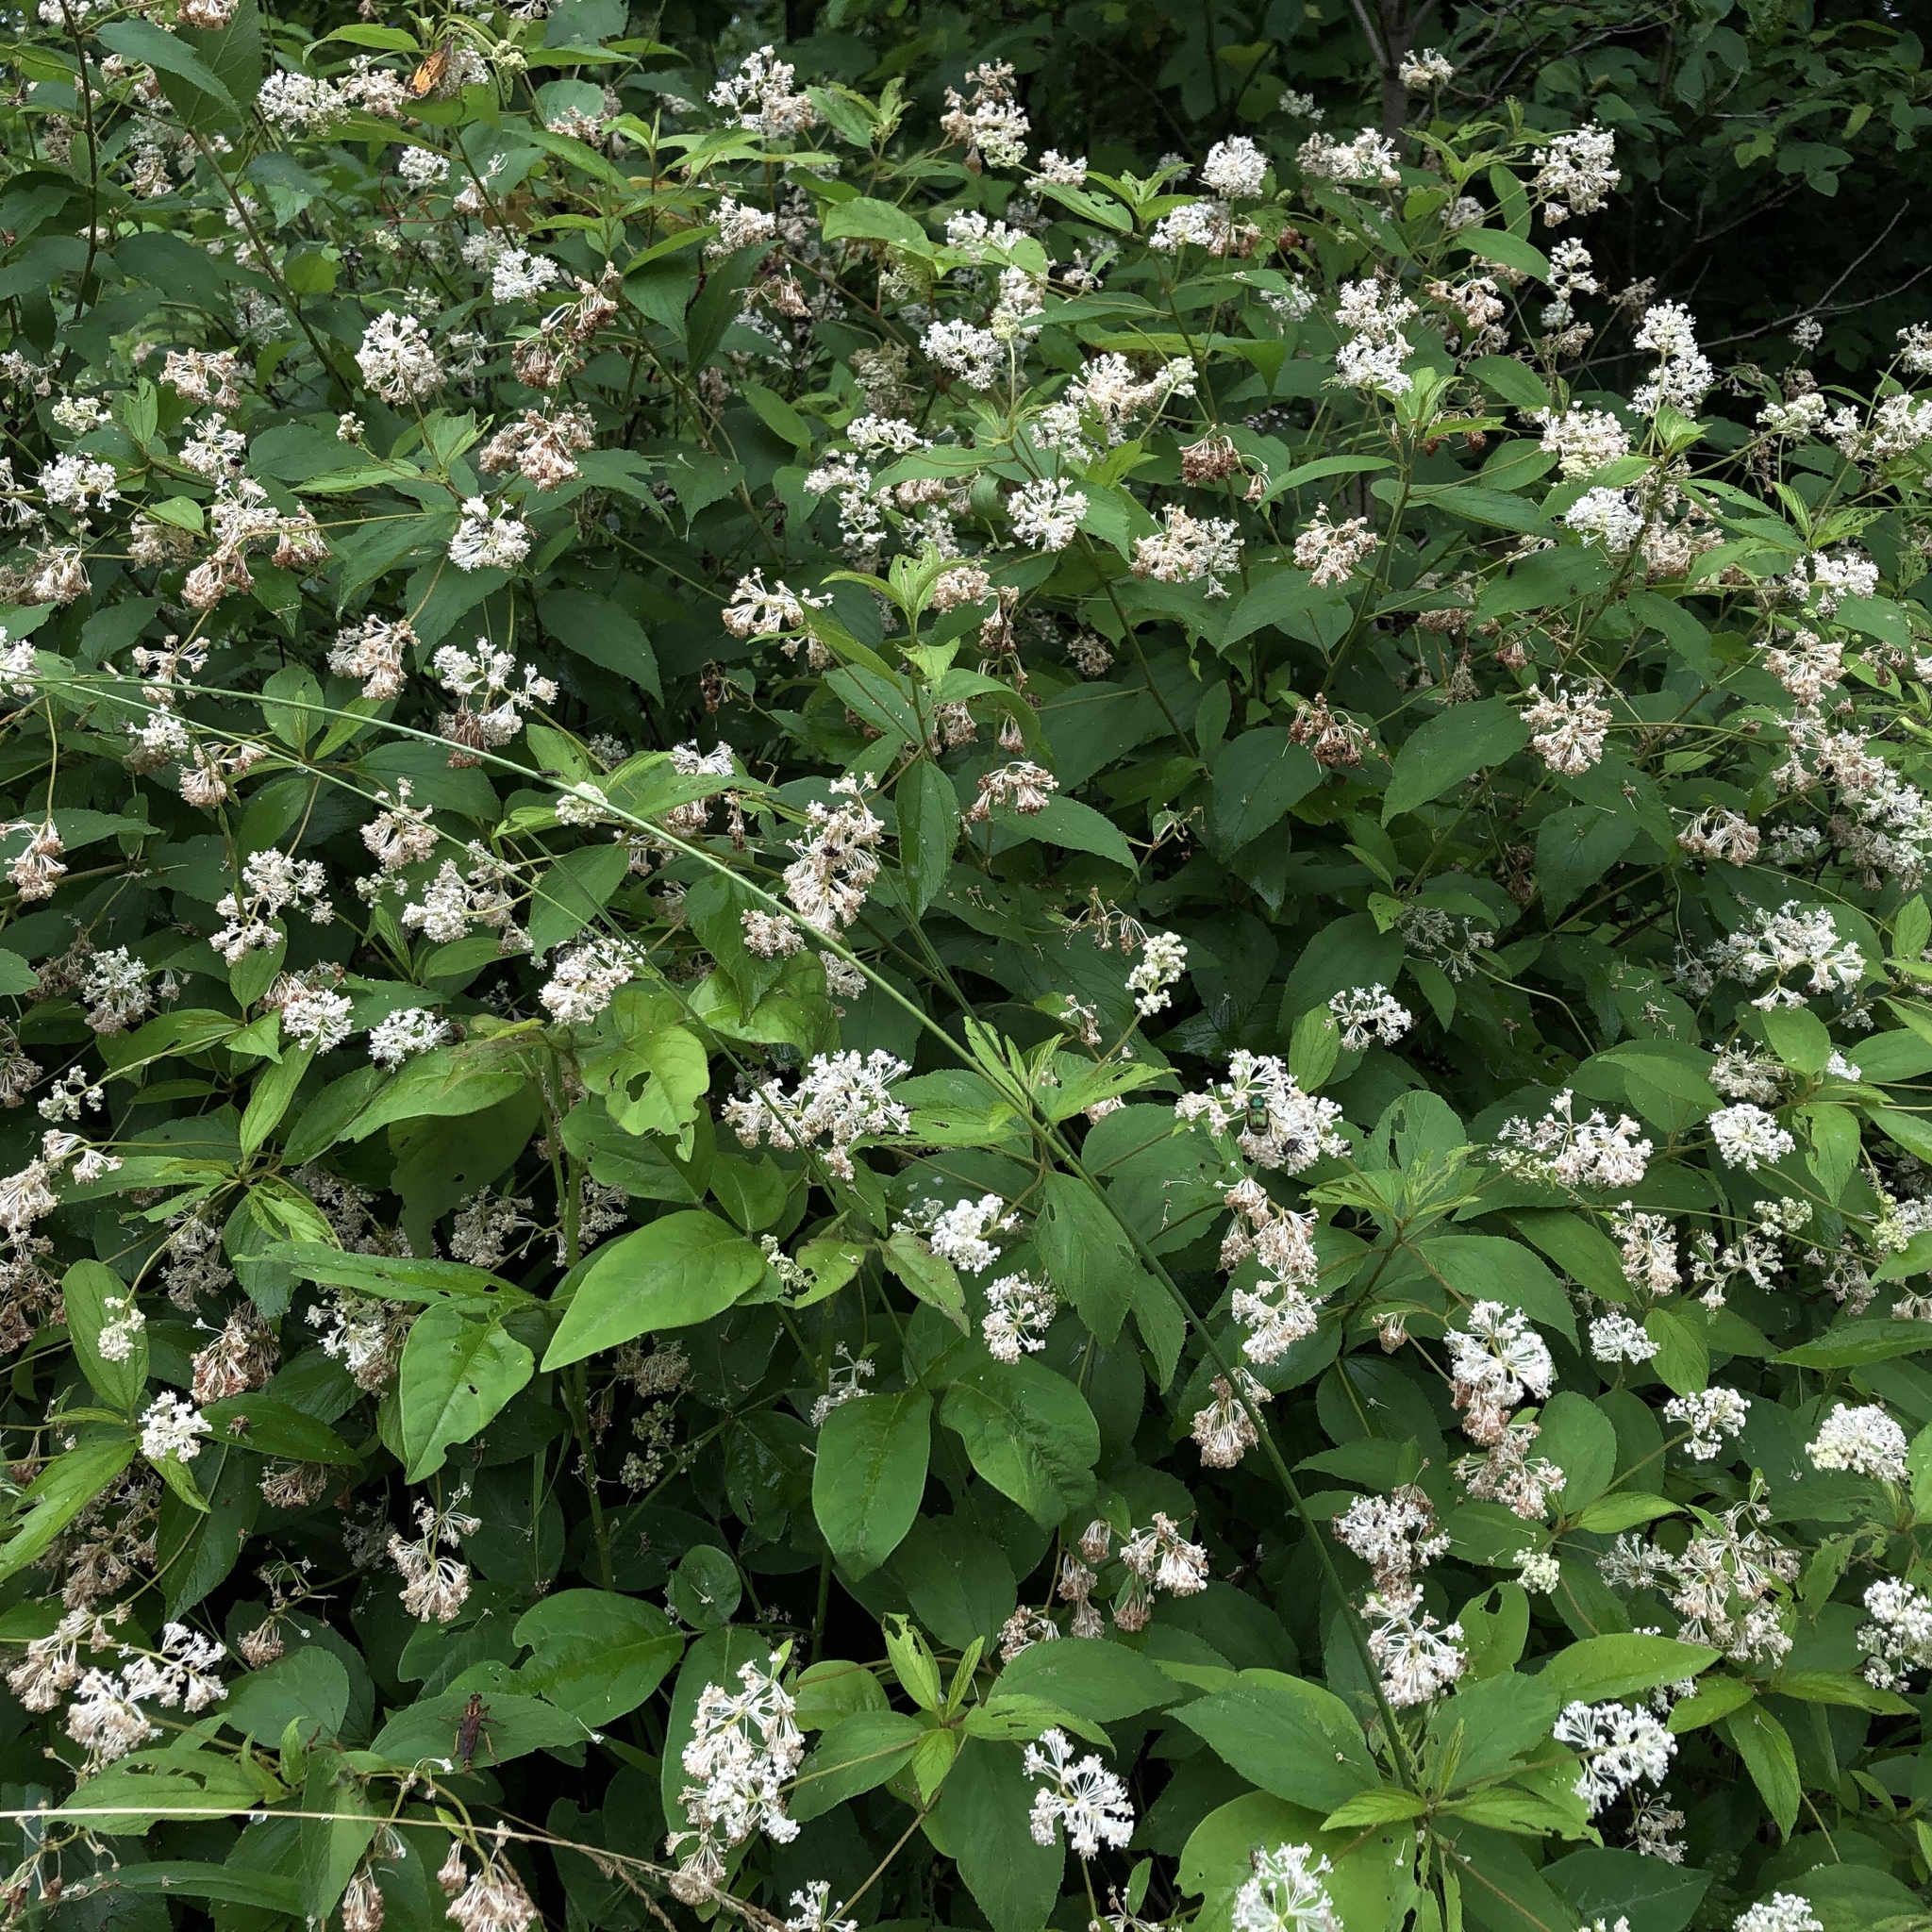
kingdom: Plantae
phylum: Tracheophyta
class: Magnoliopsida
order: Rosales
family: Rhamnaceae
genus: Ceanothus
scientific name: Ceanothus americanus
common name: Redroot
